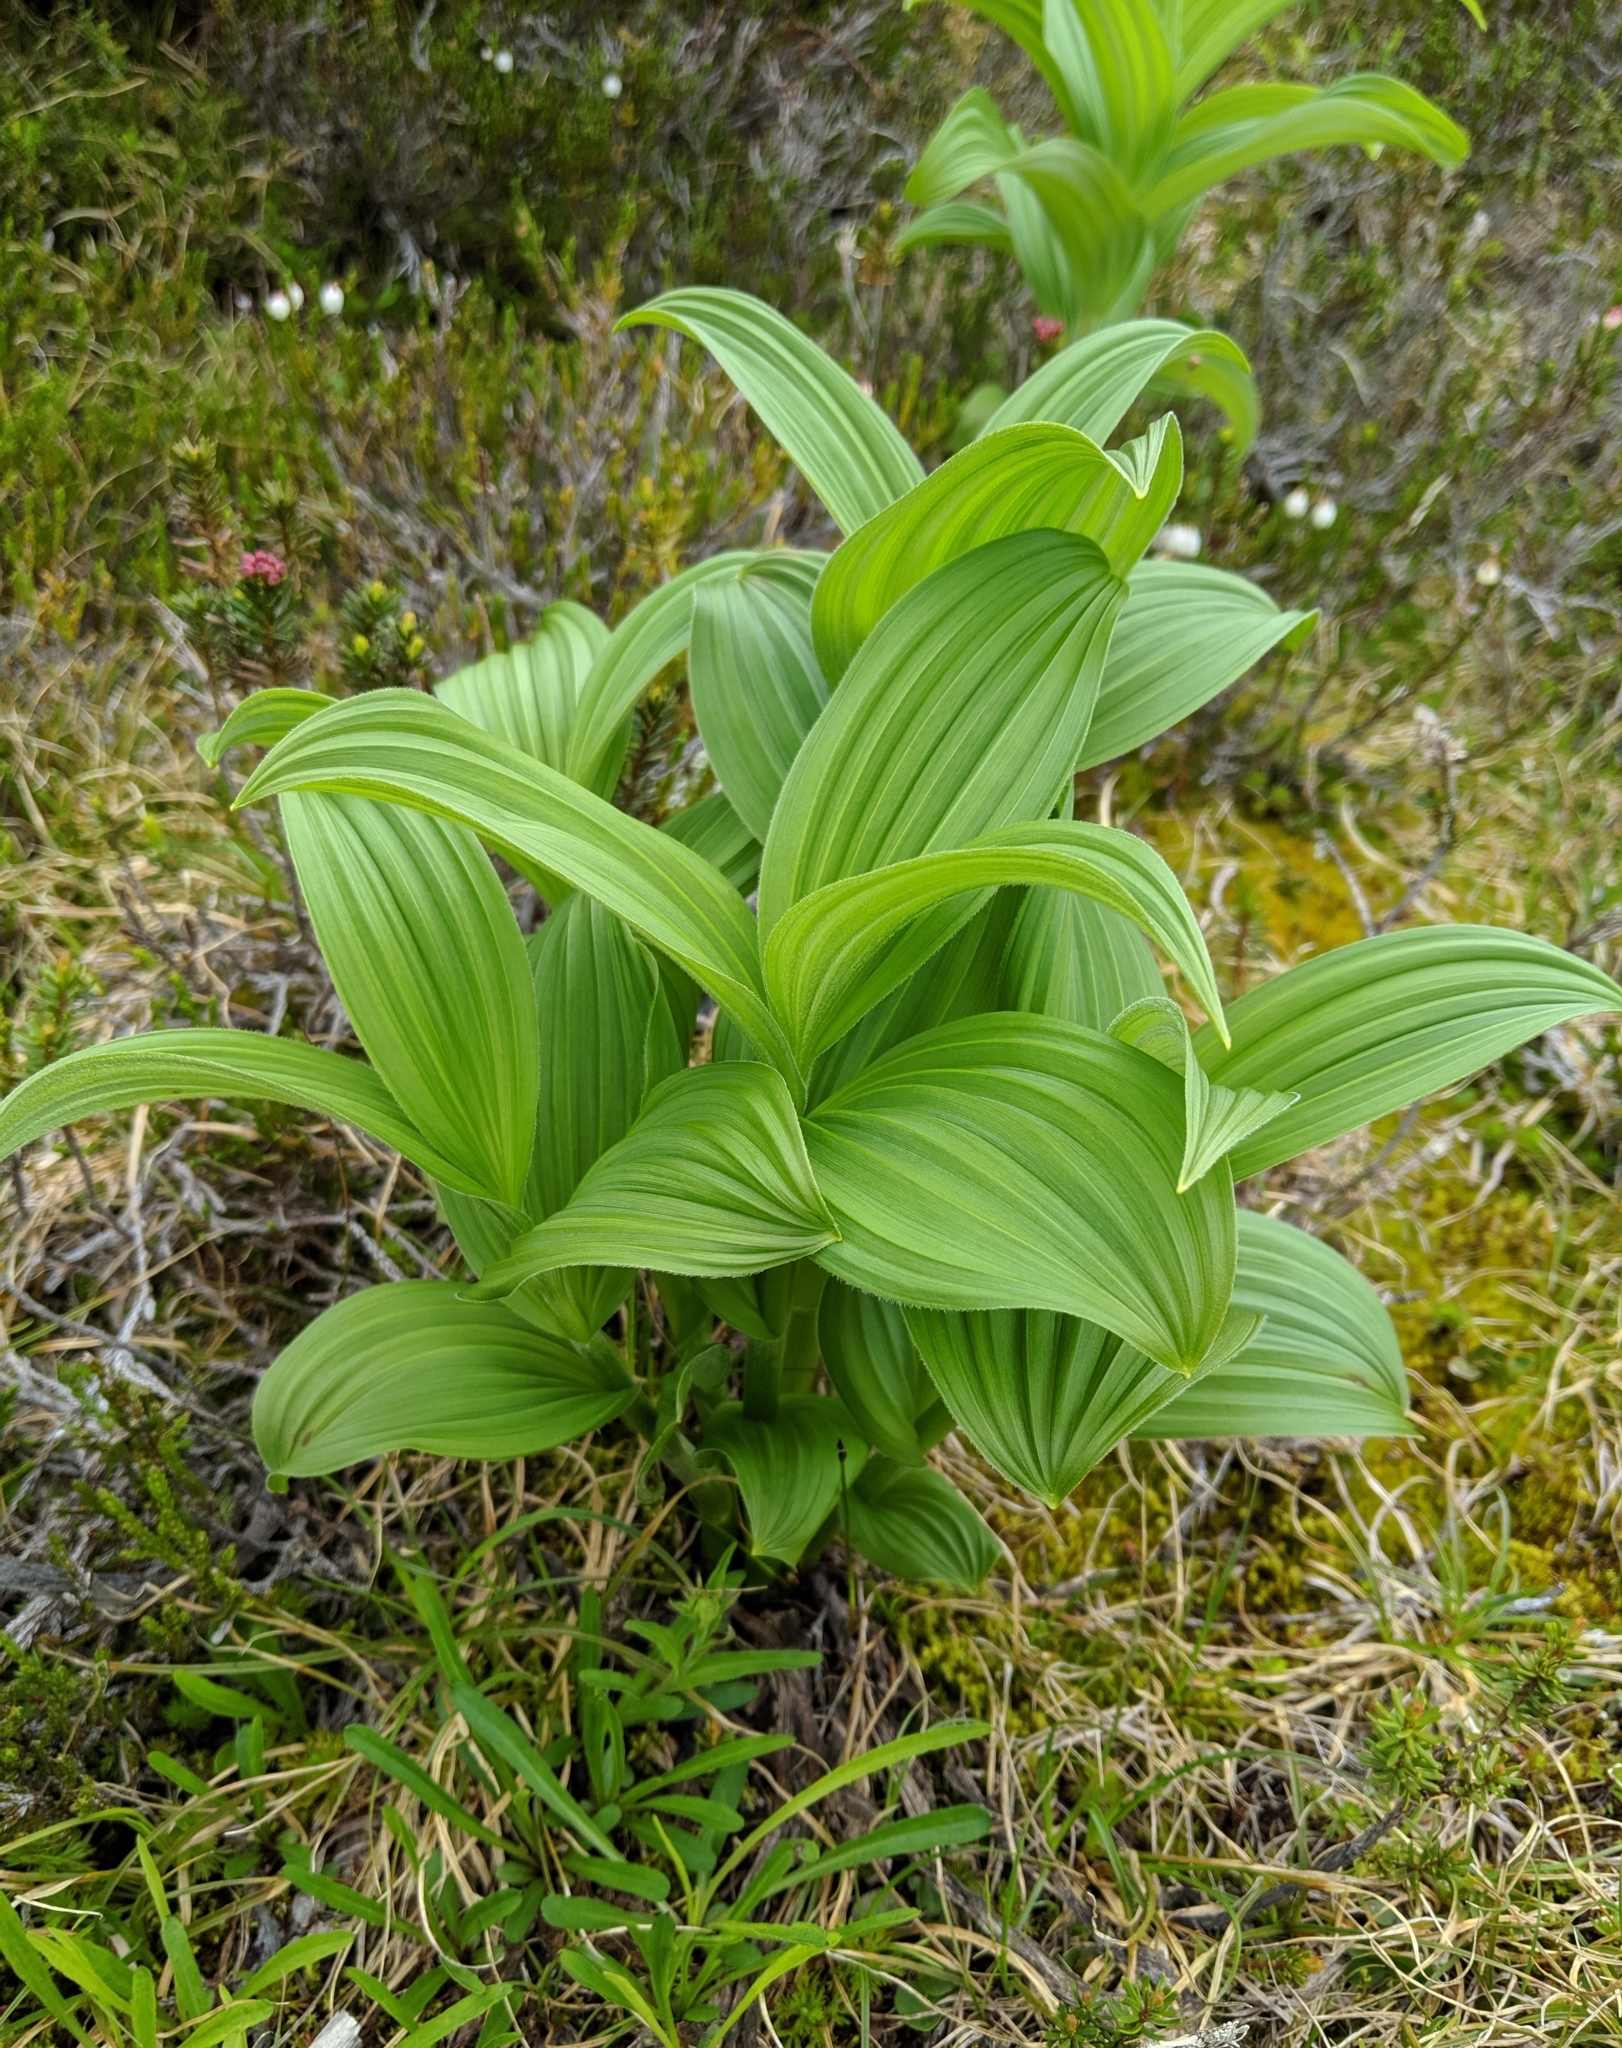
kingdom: Plantae
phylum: Tracheophyta
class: Liliopsida
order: Liliales
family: Melanthiaceae
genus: Veratrum
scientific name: Veratrum viride
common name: American false hellebore
